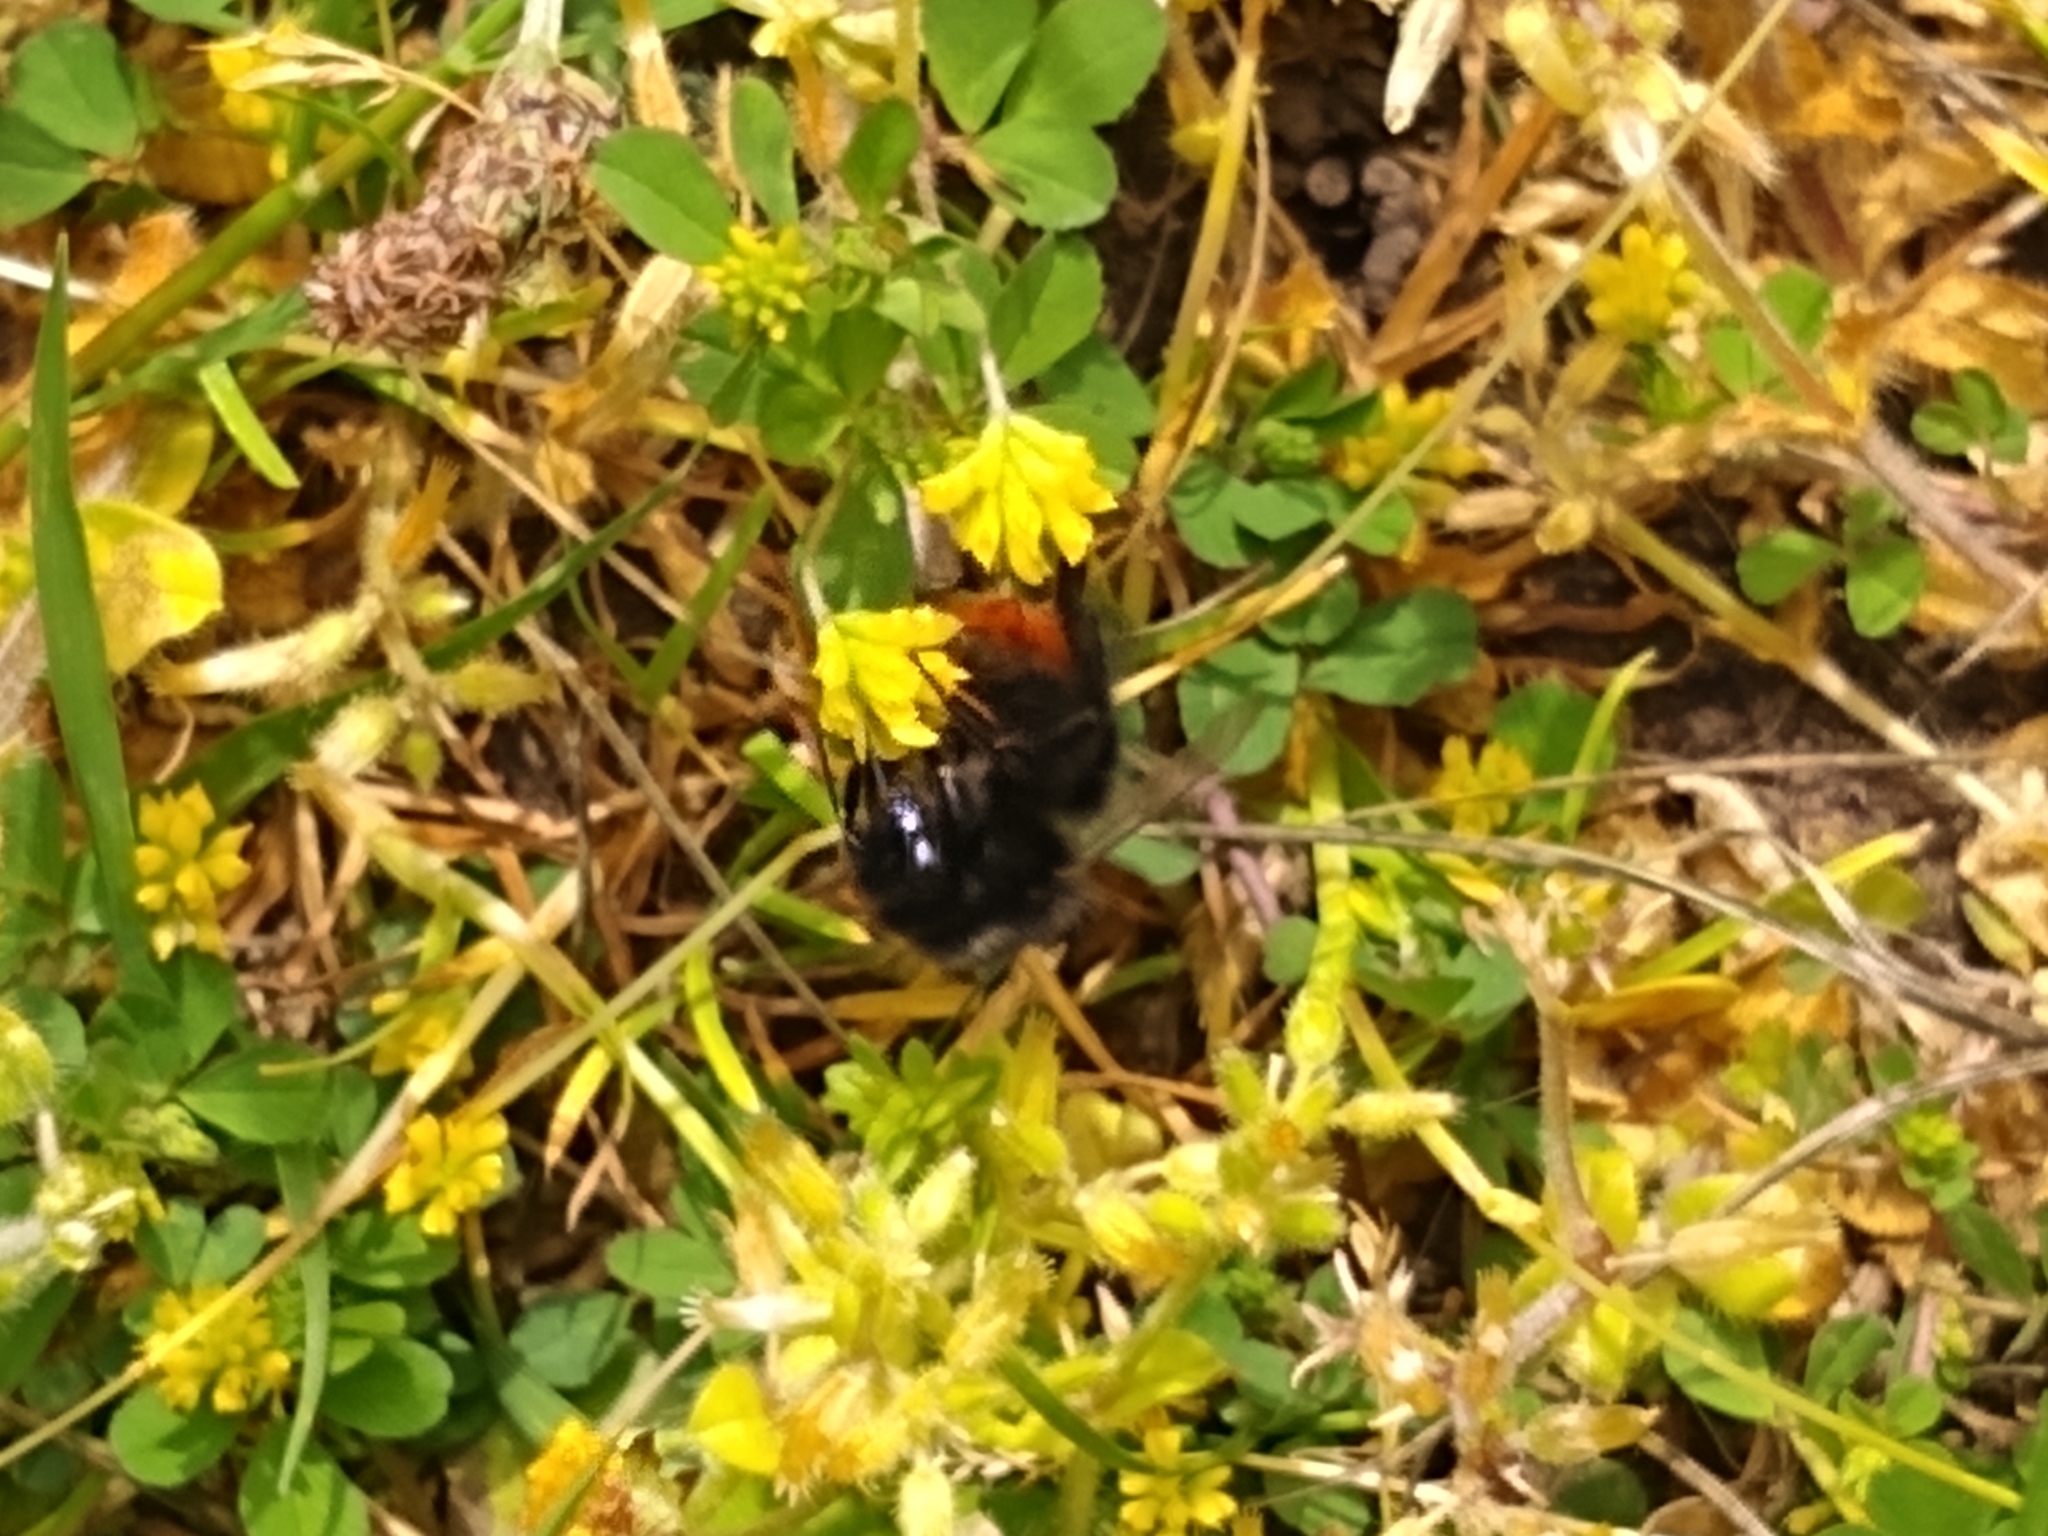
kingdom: Animalia
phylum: Arthropoda
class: Insecta
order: Hymenoptera
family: Apidae
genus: Bombus
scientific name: Bombus lapidarius
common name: Large red-tailed humble-bee
